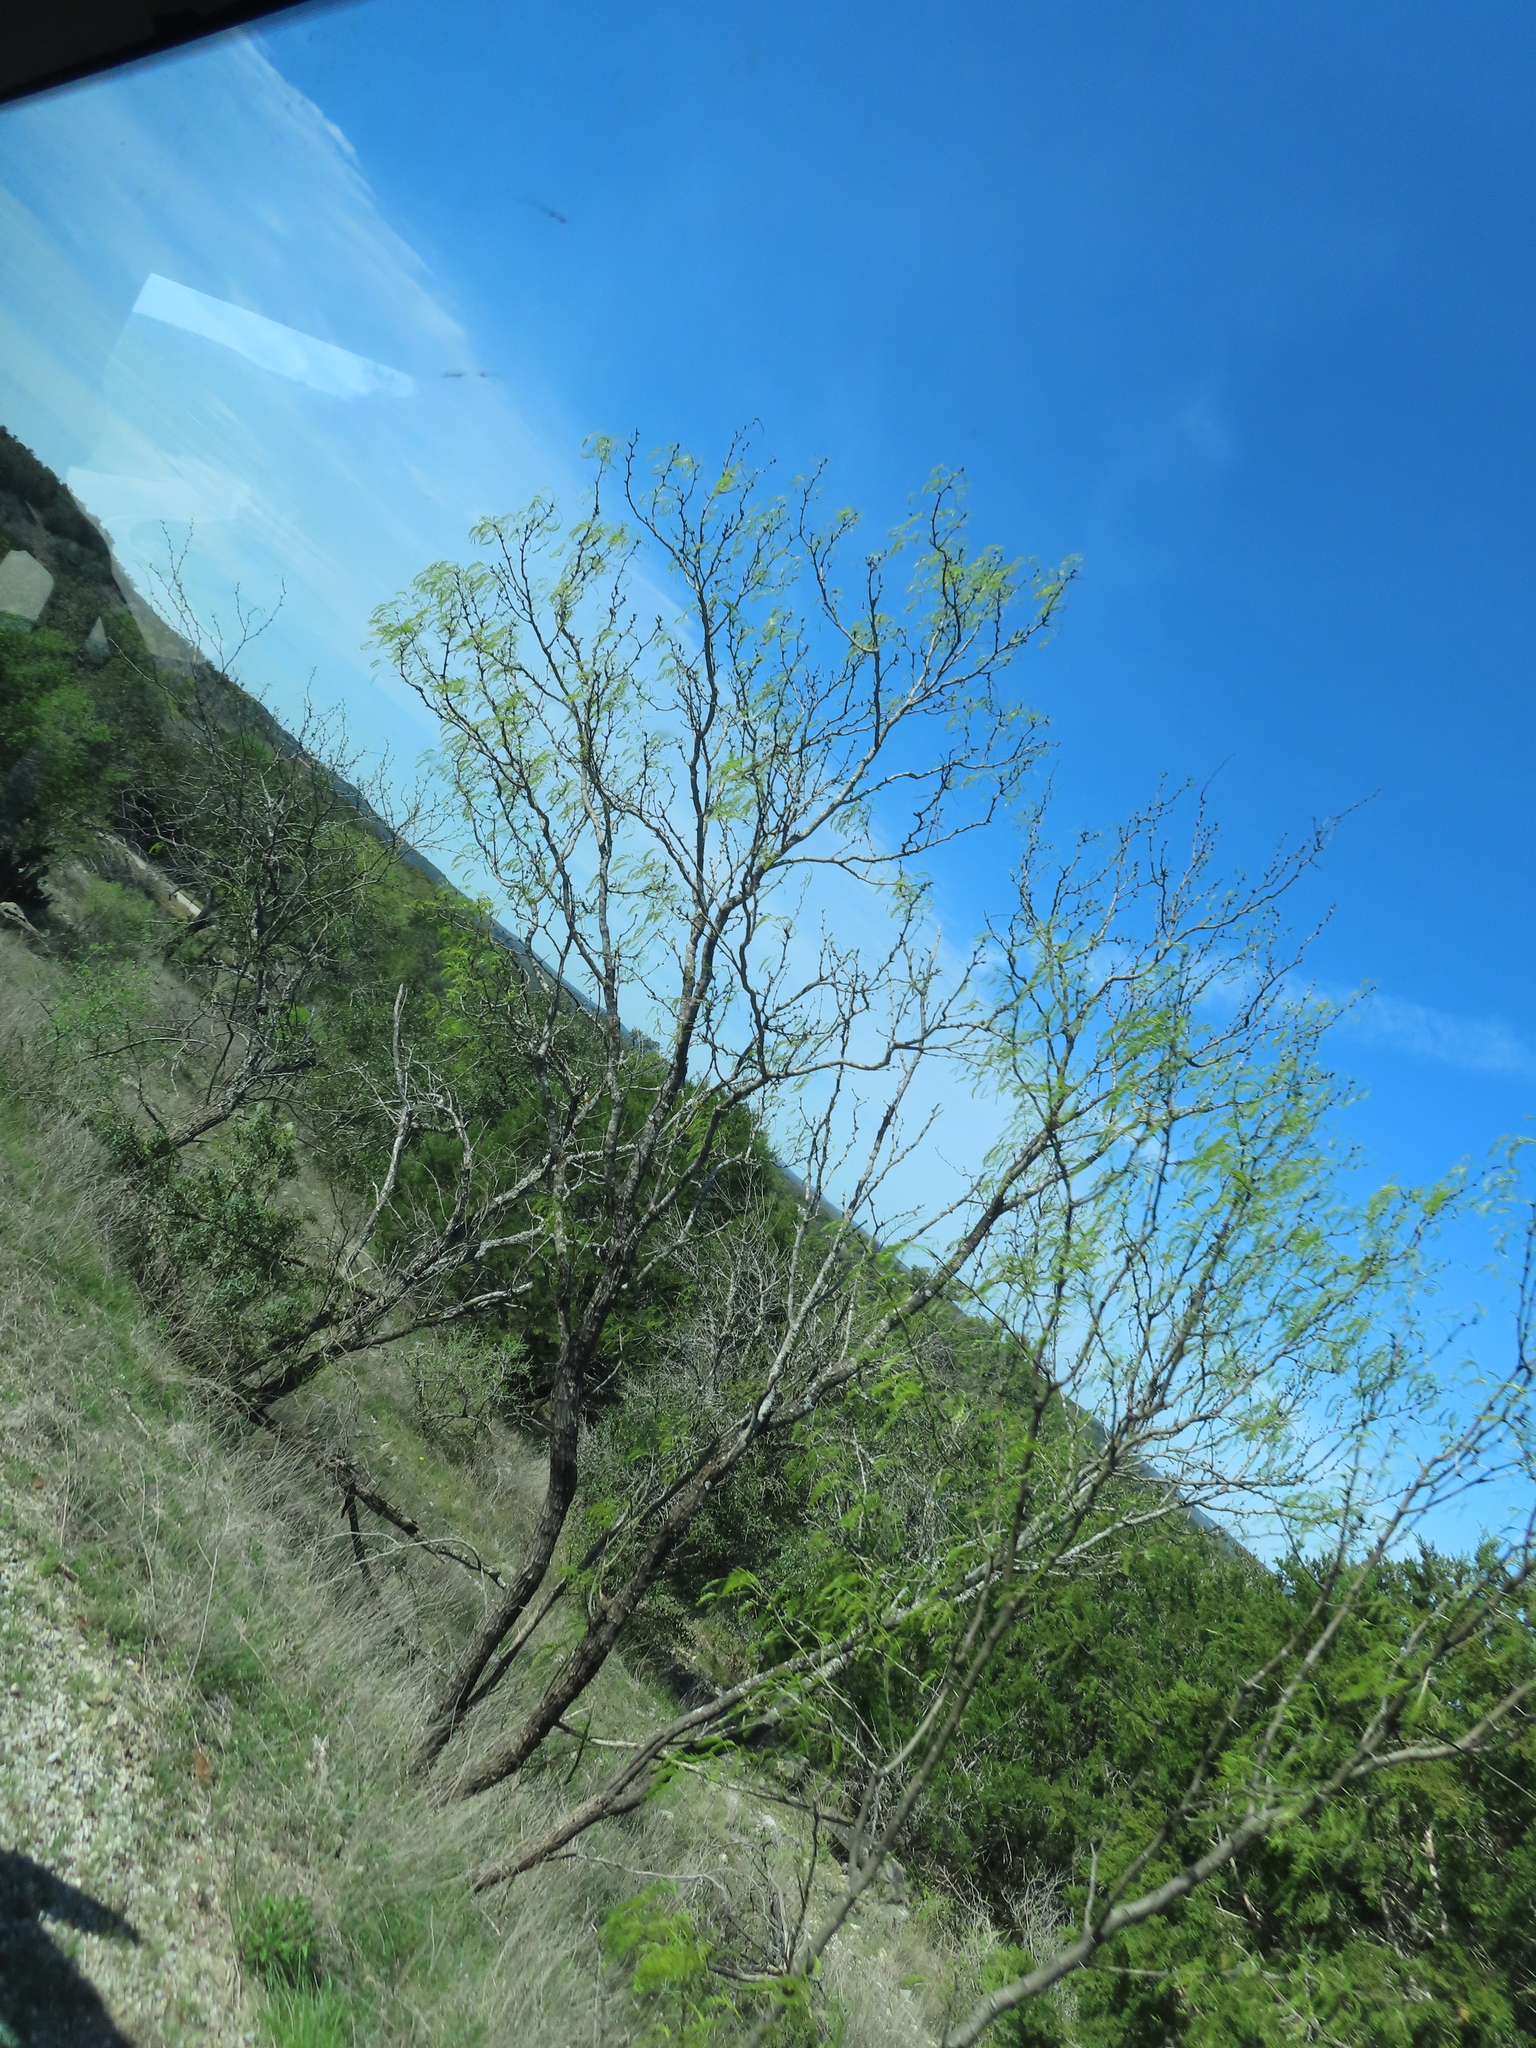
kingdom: Plantae
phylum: Tracheophyta
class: Magnoliopsida
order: Fabales
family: Fabaceae
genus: Prosopis
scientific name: Prosopis glandulosa
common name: Honey mesquite
